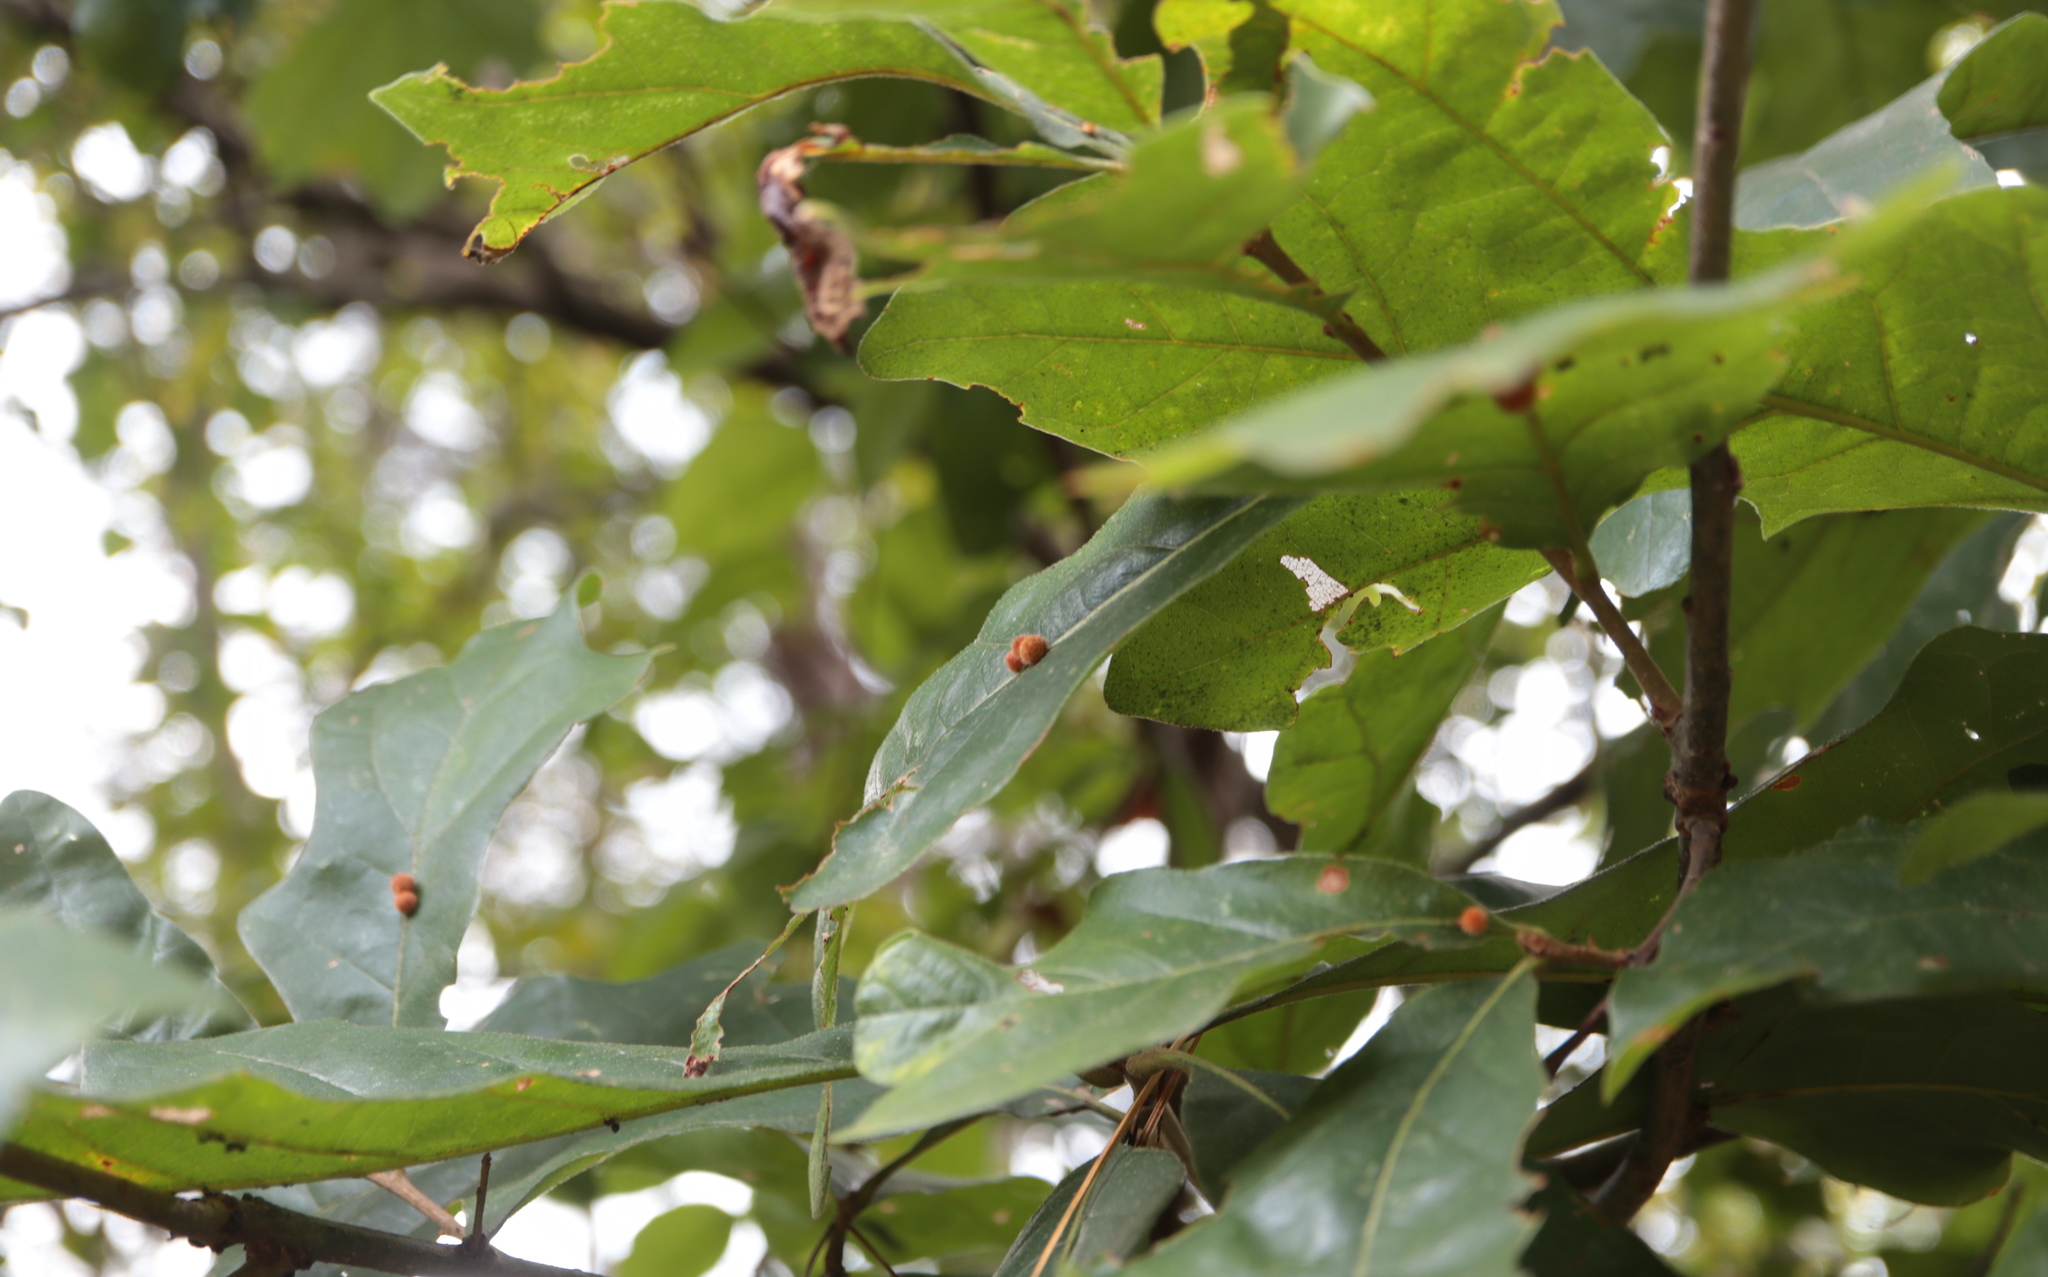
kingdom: Animalia
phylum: Arthropoda
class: Insecta
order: Hymenoptera
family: Cynipidae
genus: Biorhiza
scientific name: Biorhiza Sphaeroteras carolina
